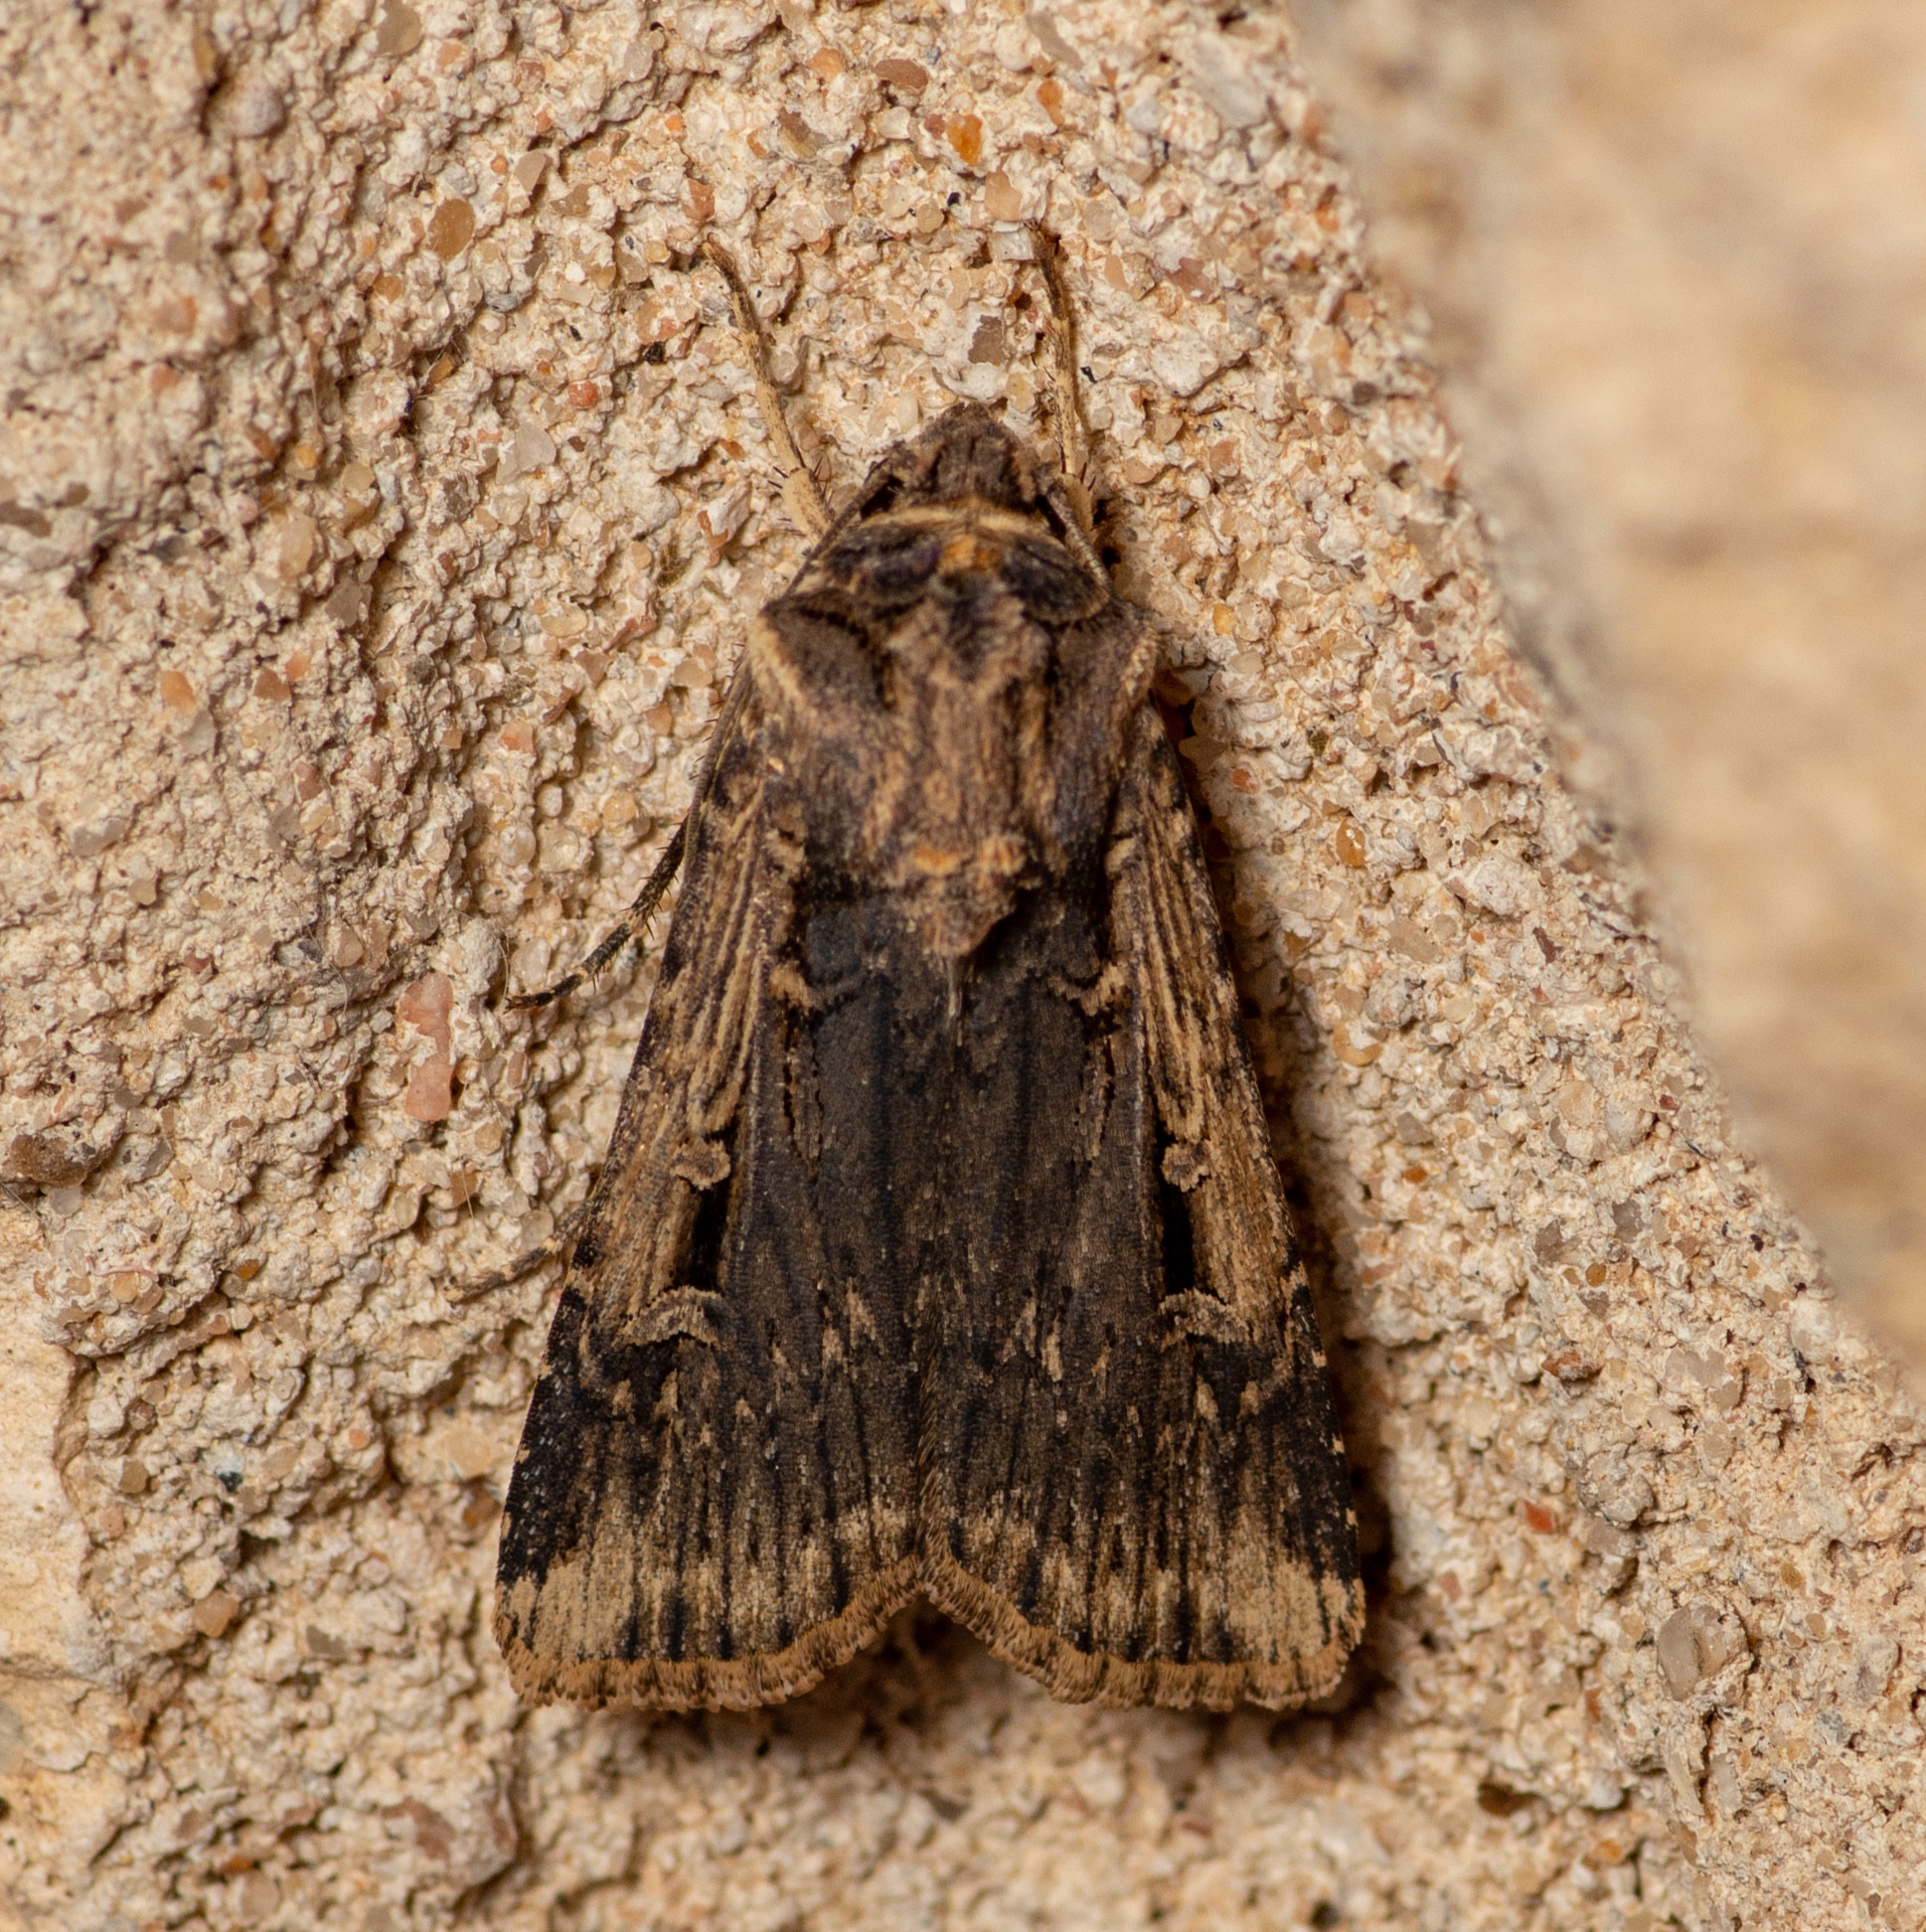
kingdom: Animalia
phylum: Arthropoda
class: Insecta
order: Lepidoptera
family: Noctuidae
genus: Feltia
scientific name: Feltia subterranea
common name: Granulate cutworm
